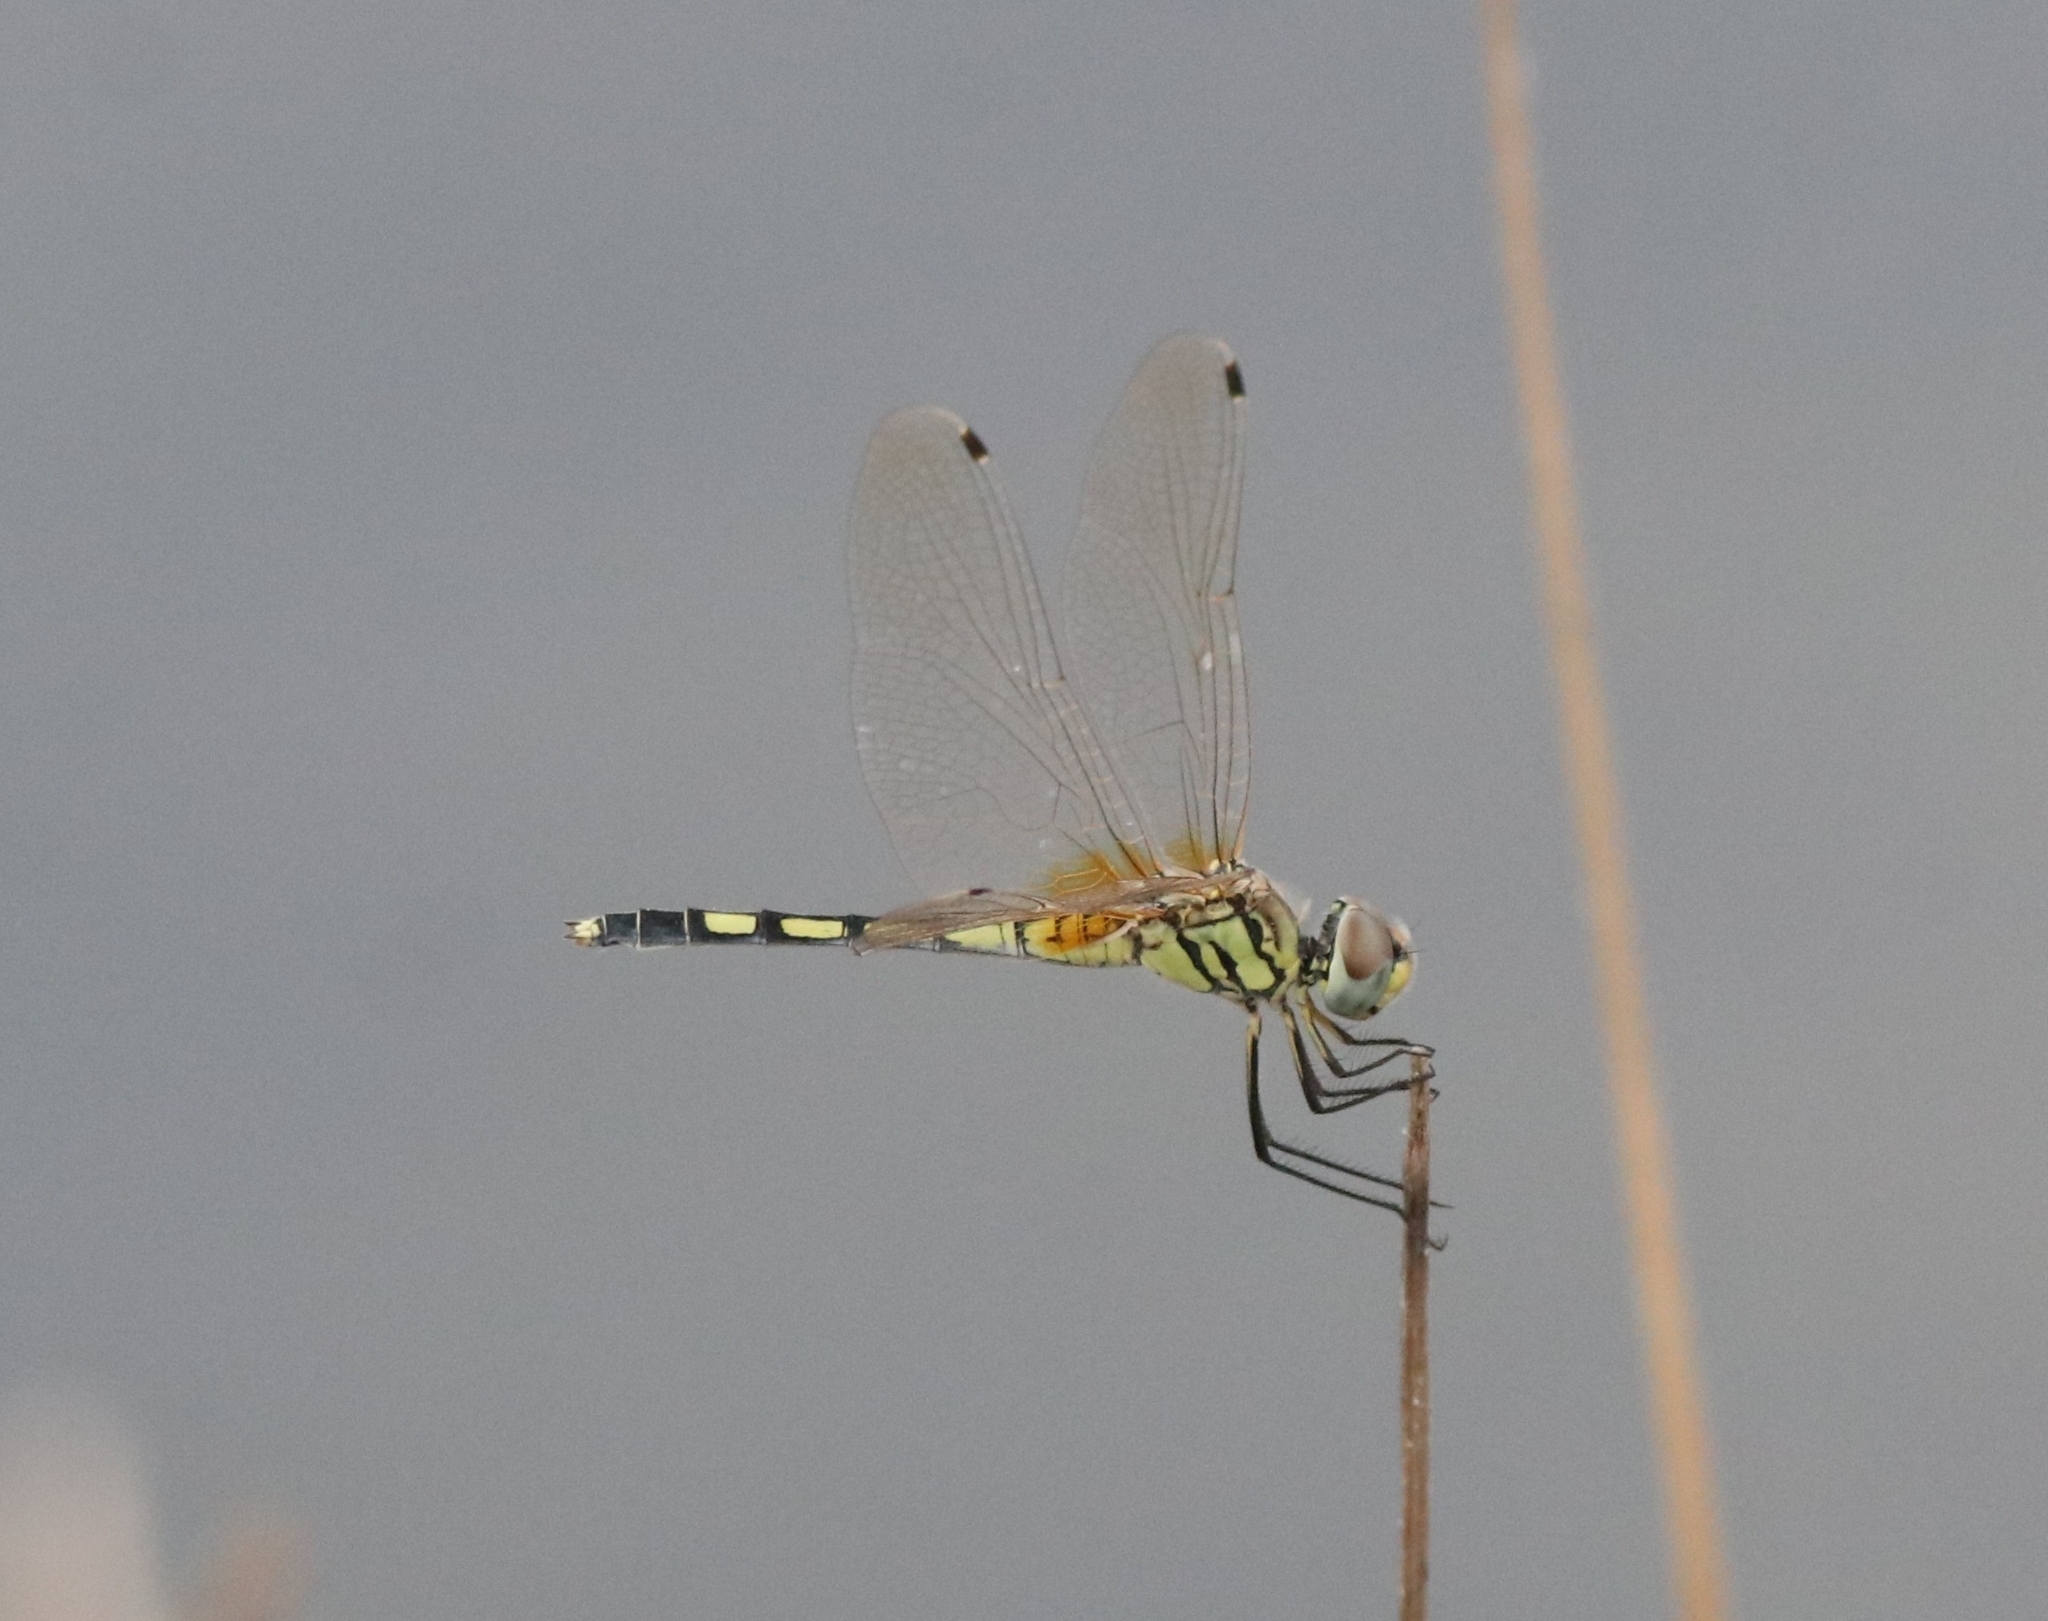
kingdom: Animalia
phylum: Arthropoda
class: Insecta
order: Odonata
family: Libellulidae
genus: Trithemis
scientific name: Trithemis pallidinervis
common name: Dancing dropwing
